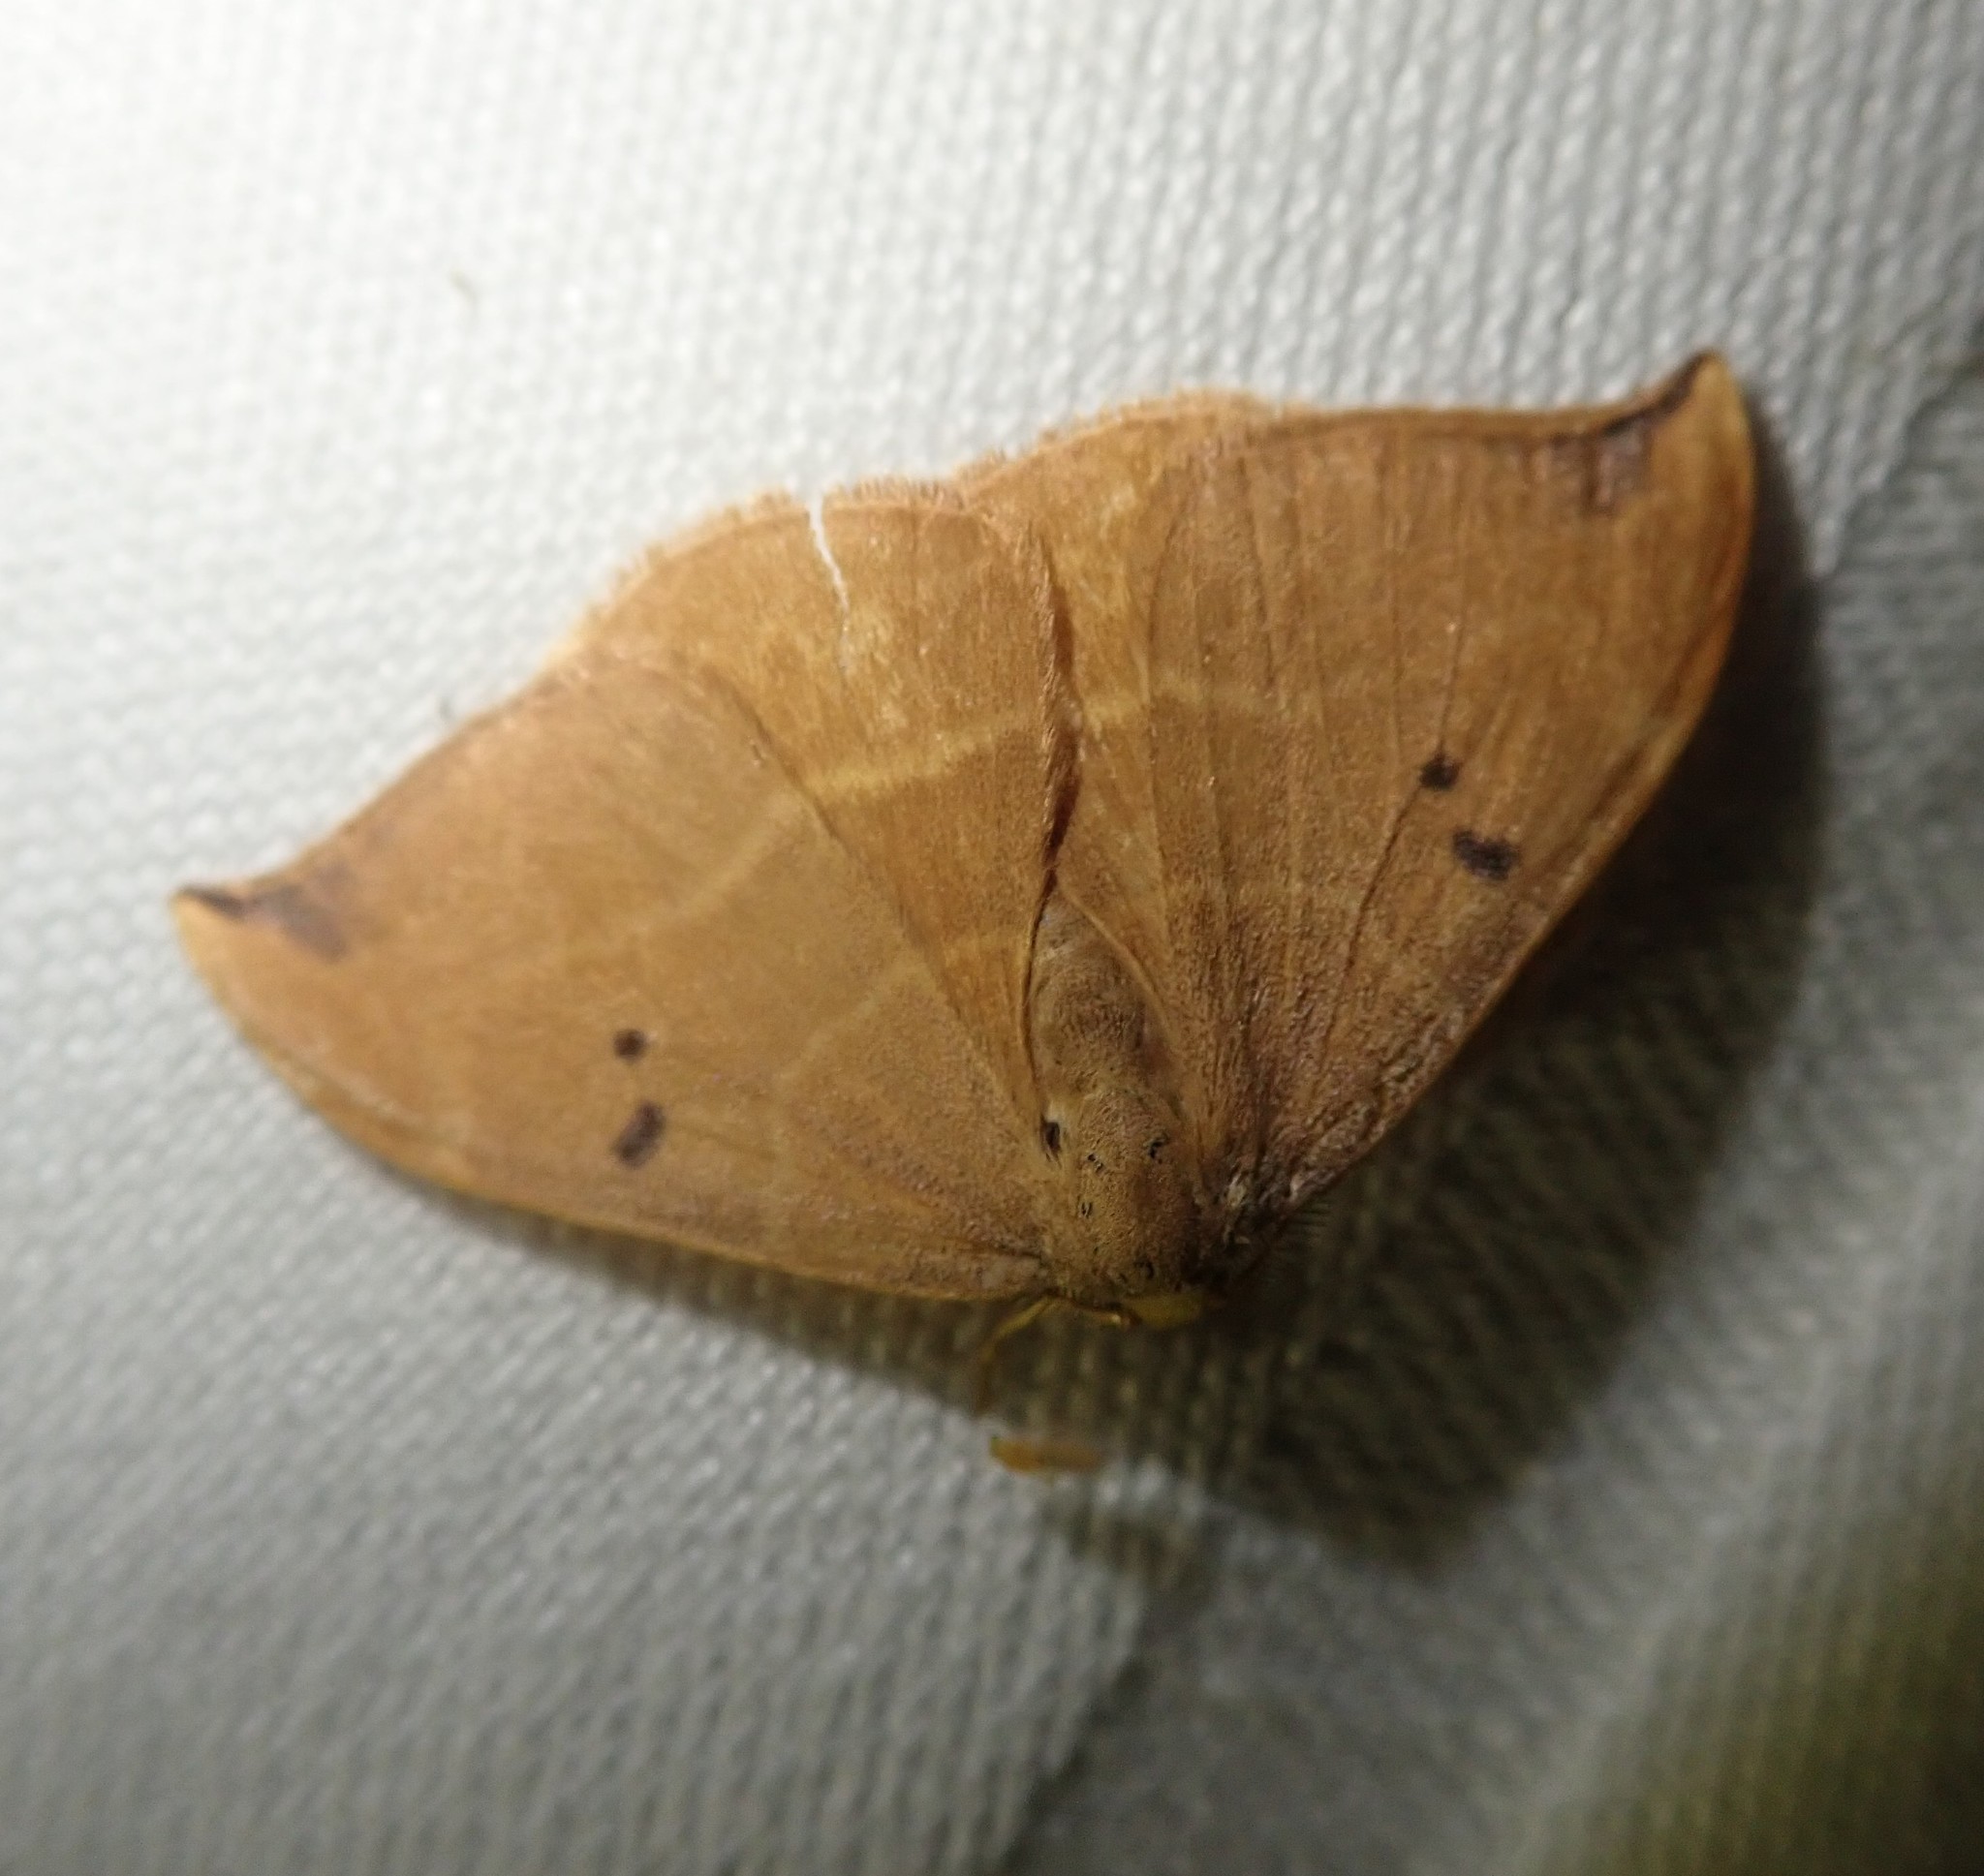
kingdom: Animalia
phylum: Arthropoda
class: Insecta
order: Lepidoptera
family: Drepanidae
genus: Watsonalla
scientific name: Watsonalla binaria
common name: Oak hook-tip
